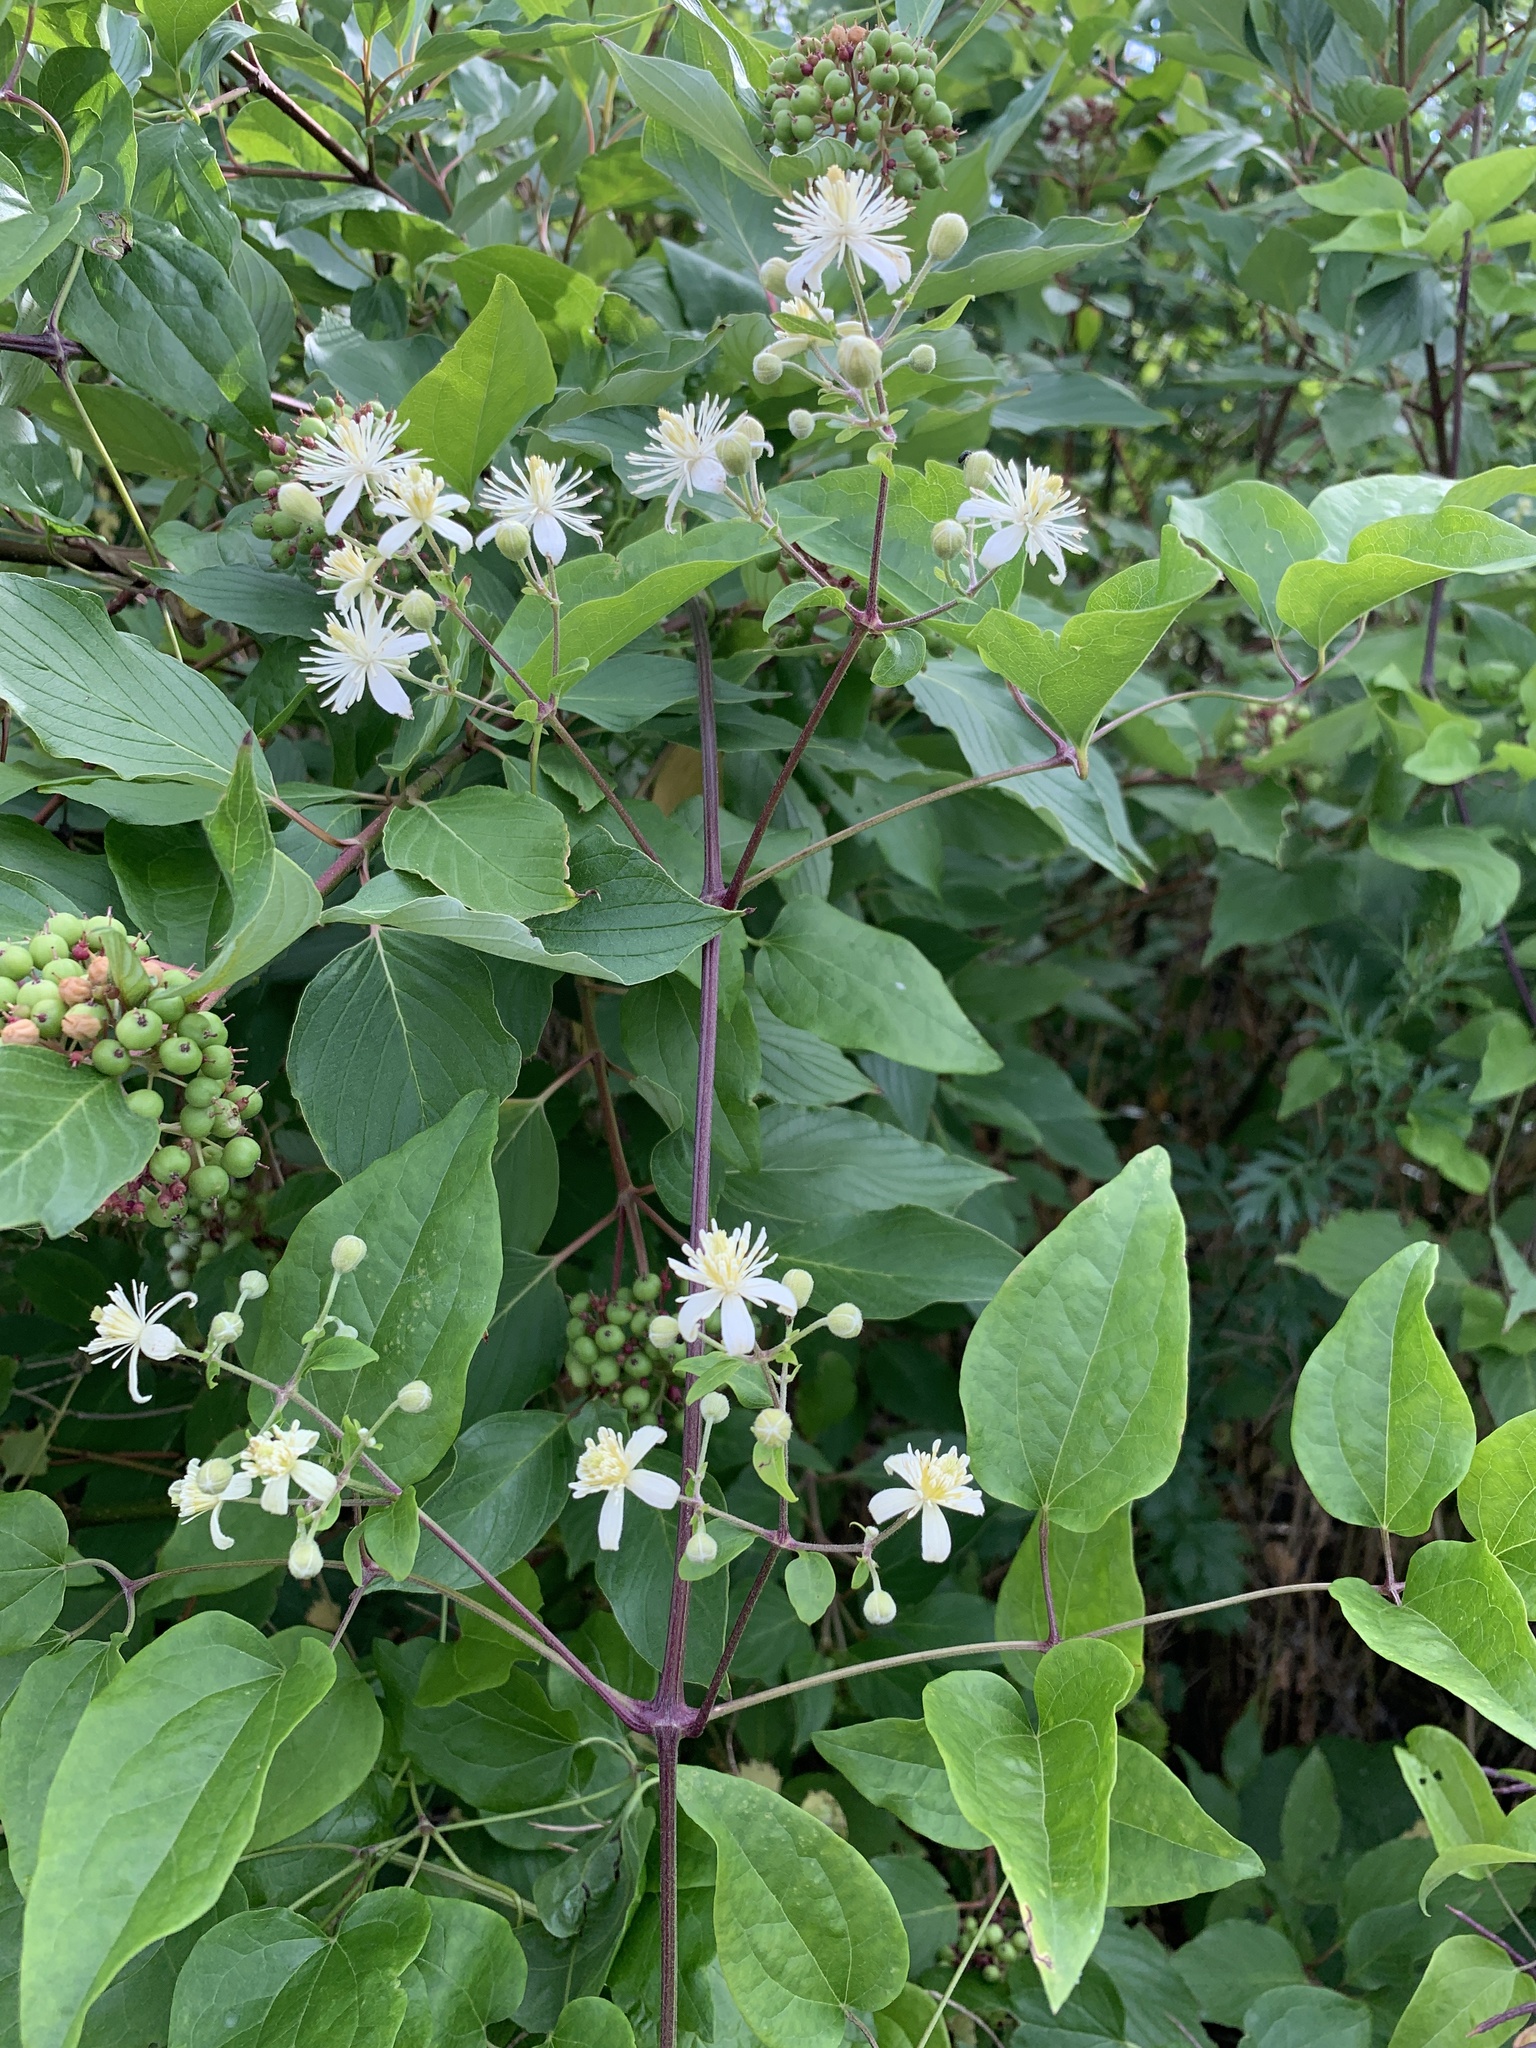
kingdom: Plantae
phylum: Tracheophyta
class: Magnoliopsida
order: Ranunculales
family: Ranunculaceae
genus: Clematis
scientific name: Clematis vitalba
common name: Evergreen clematis
